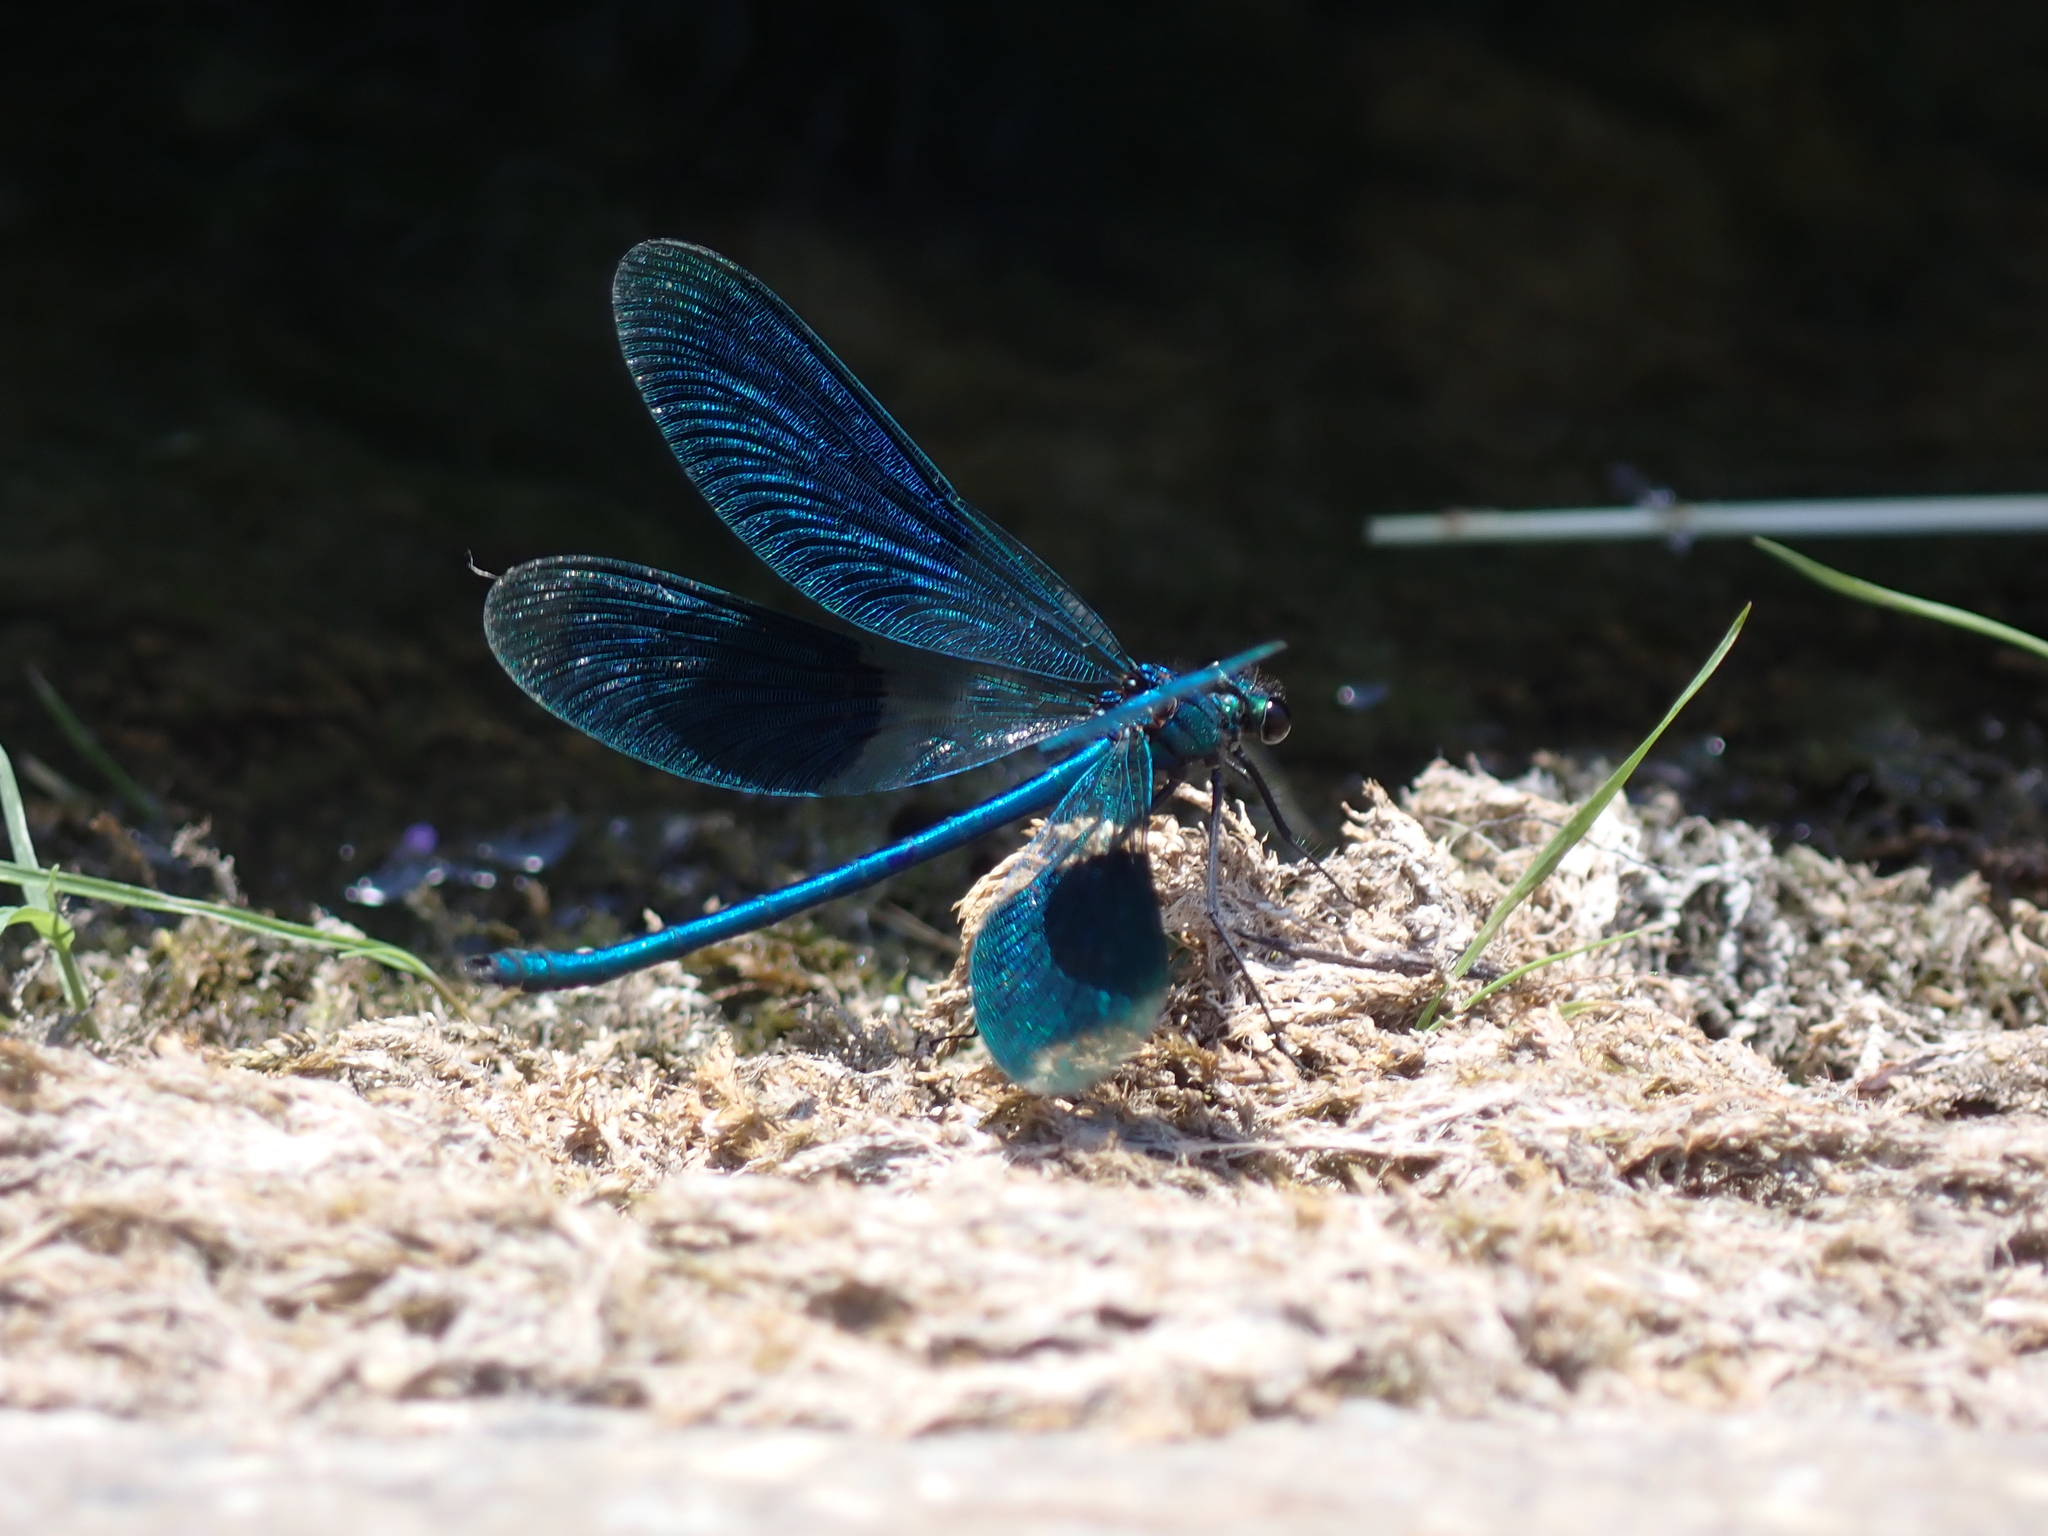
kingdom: Animalia
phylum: Arthropoda
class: Insecta
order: Odonata
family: Calopterygidae
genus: Calopteryx
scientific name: Calopteryx splendens
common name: Banded demoiselle
